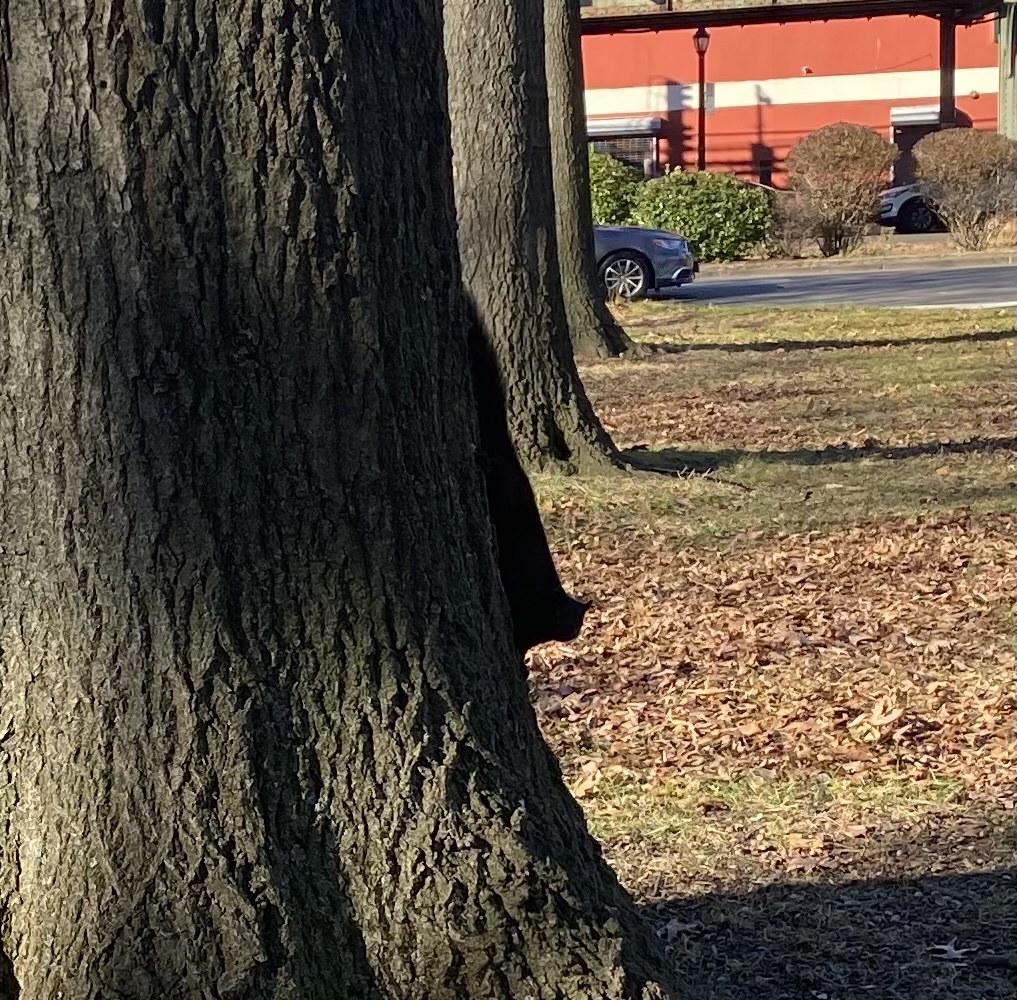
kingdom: Animalia
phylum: Chordata
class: Mammalia
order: Rodentia
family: Sciuridae
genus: Sciurus
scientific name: Sciurus carolinensis
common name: Eastern gray squirrel
